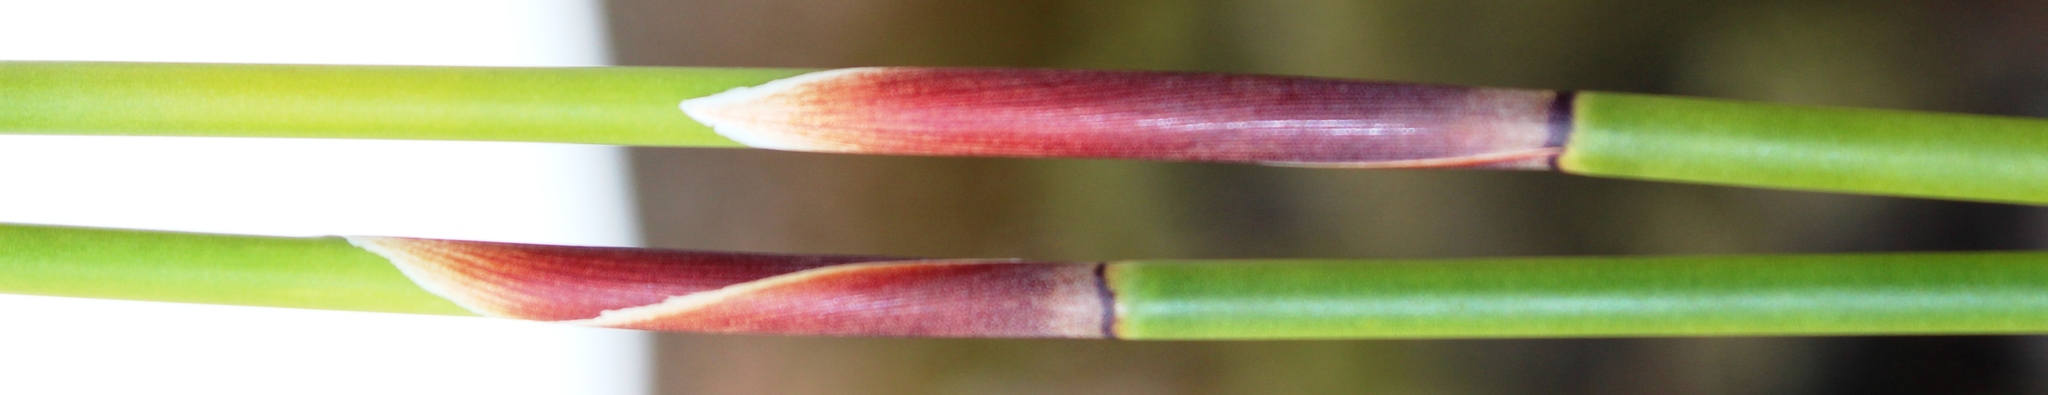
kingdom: Plantae
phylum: Tracheophyta
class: Liliopsida
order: Poales
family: Restionaceae
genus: Cannomois
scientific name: Cannomois scirpoides
